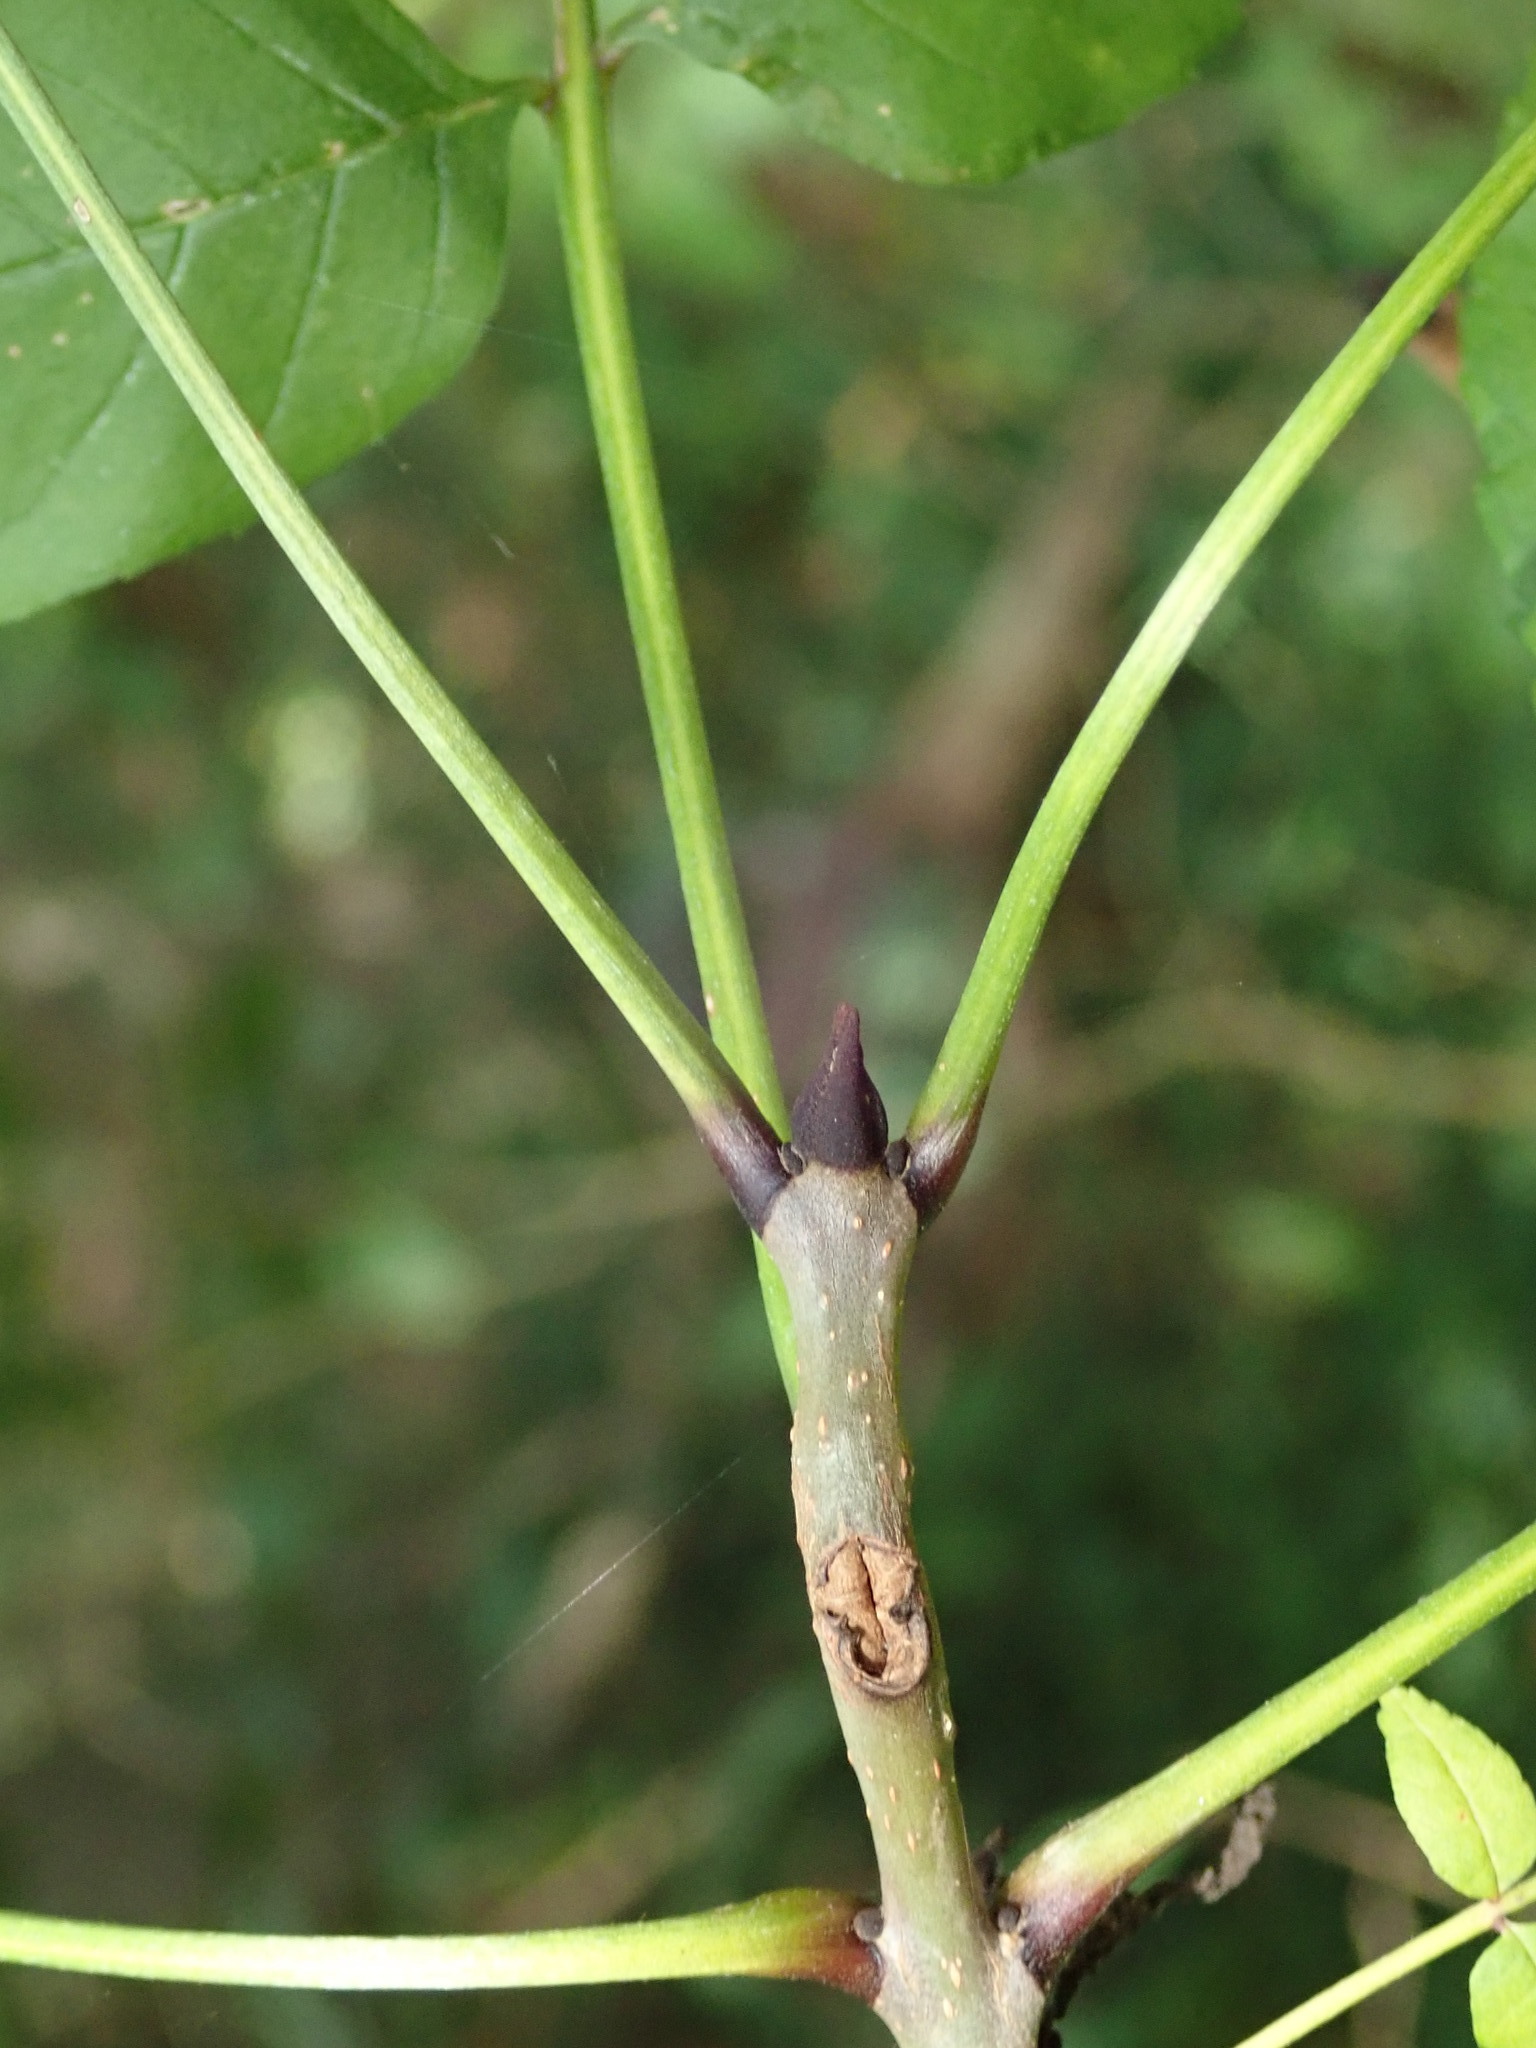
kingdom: Plantae
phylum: Tracheophyta
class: Magnoliopsida
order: Lamiales
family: Oleaceae
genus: Fraxinus
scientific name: Fraxinus excelsior
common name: European ash
